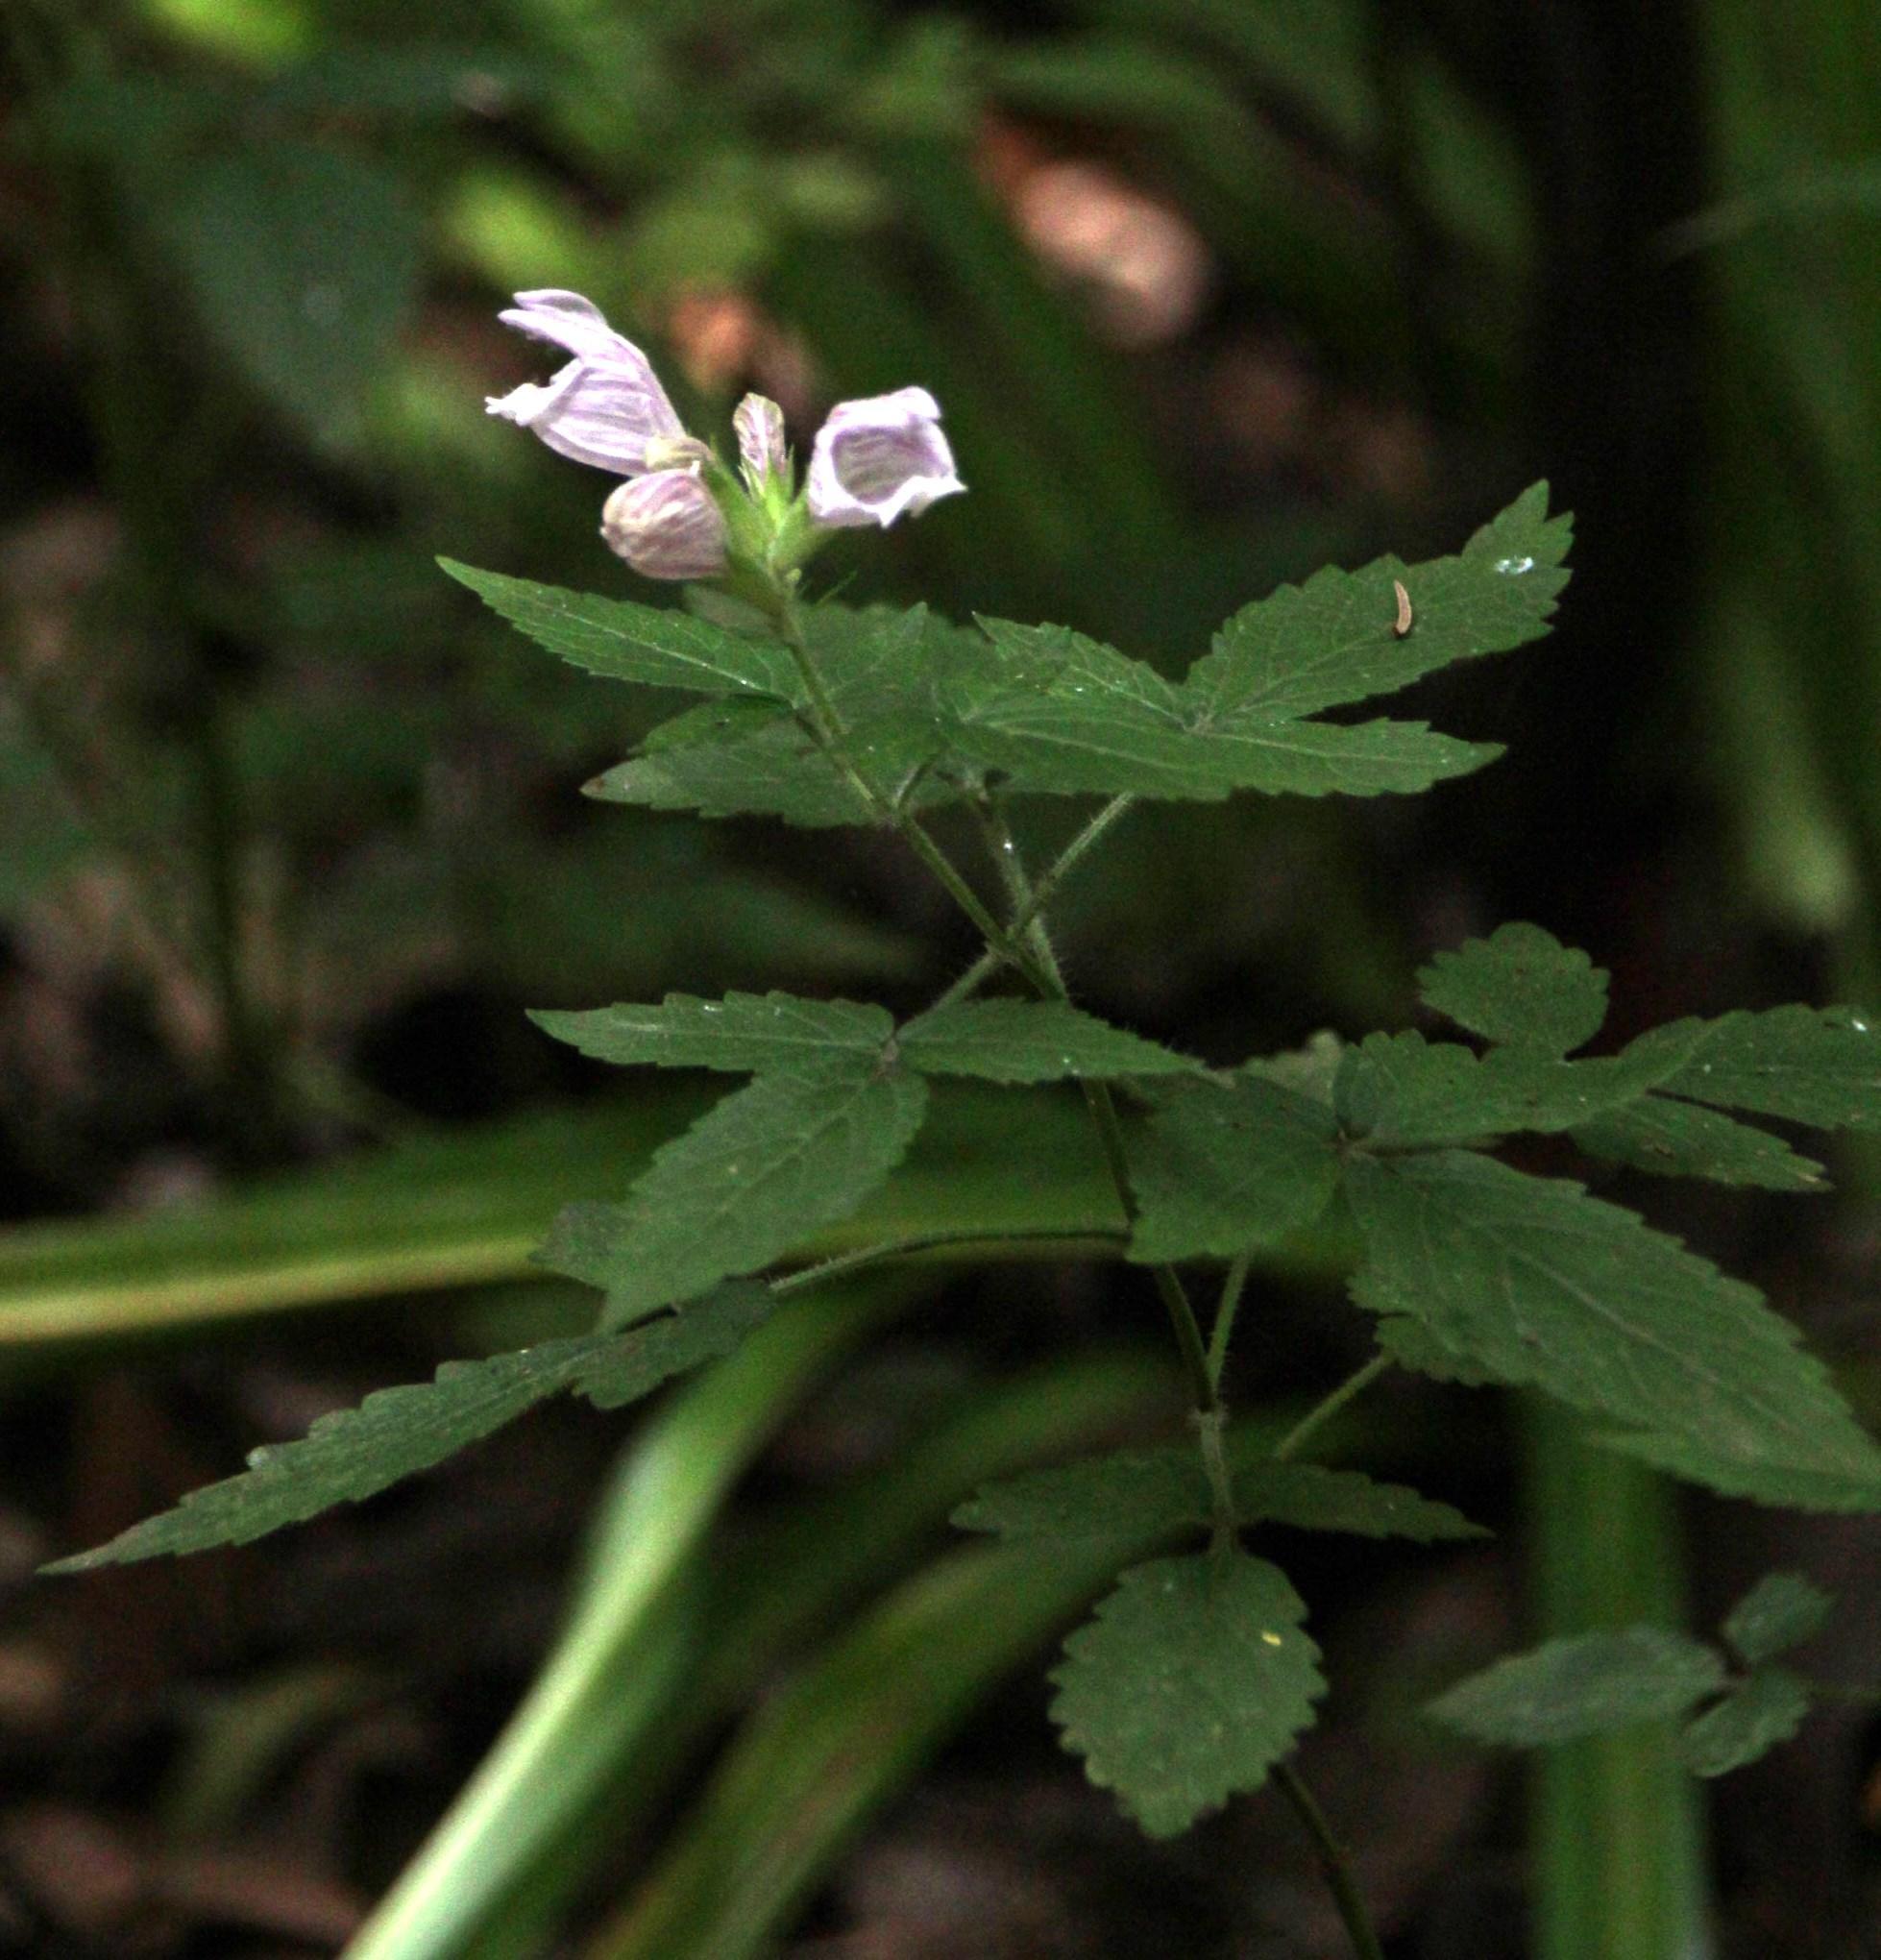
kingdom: Plantae
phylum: Tracheophyta
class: Magnoliopsida
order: Lamiales
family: Lamiaceae
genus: Cedronella
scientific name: Cedronella canariensis
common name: Canary islands balm
